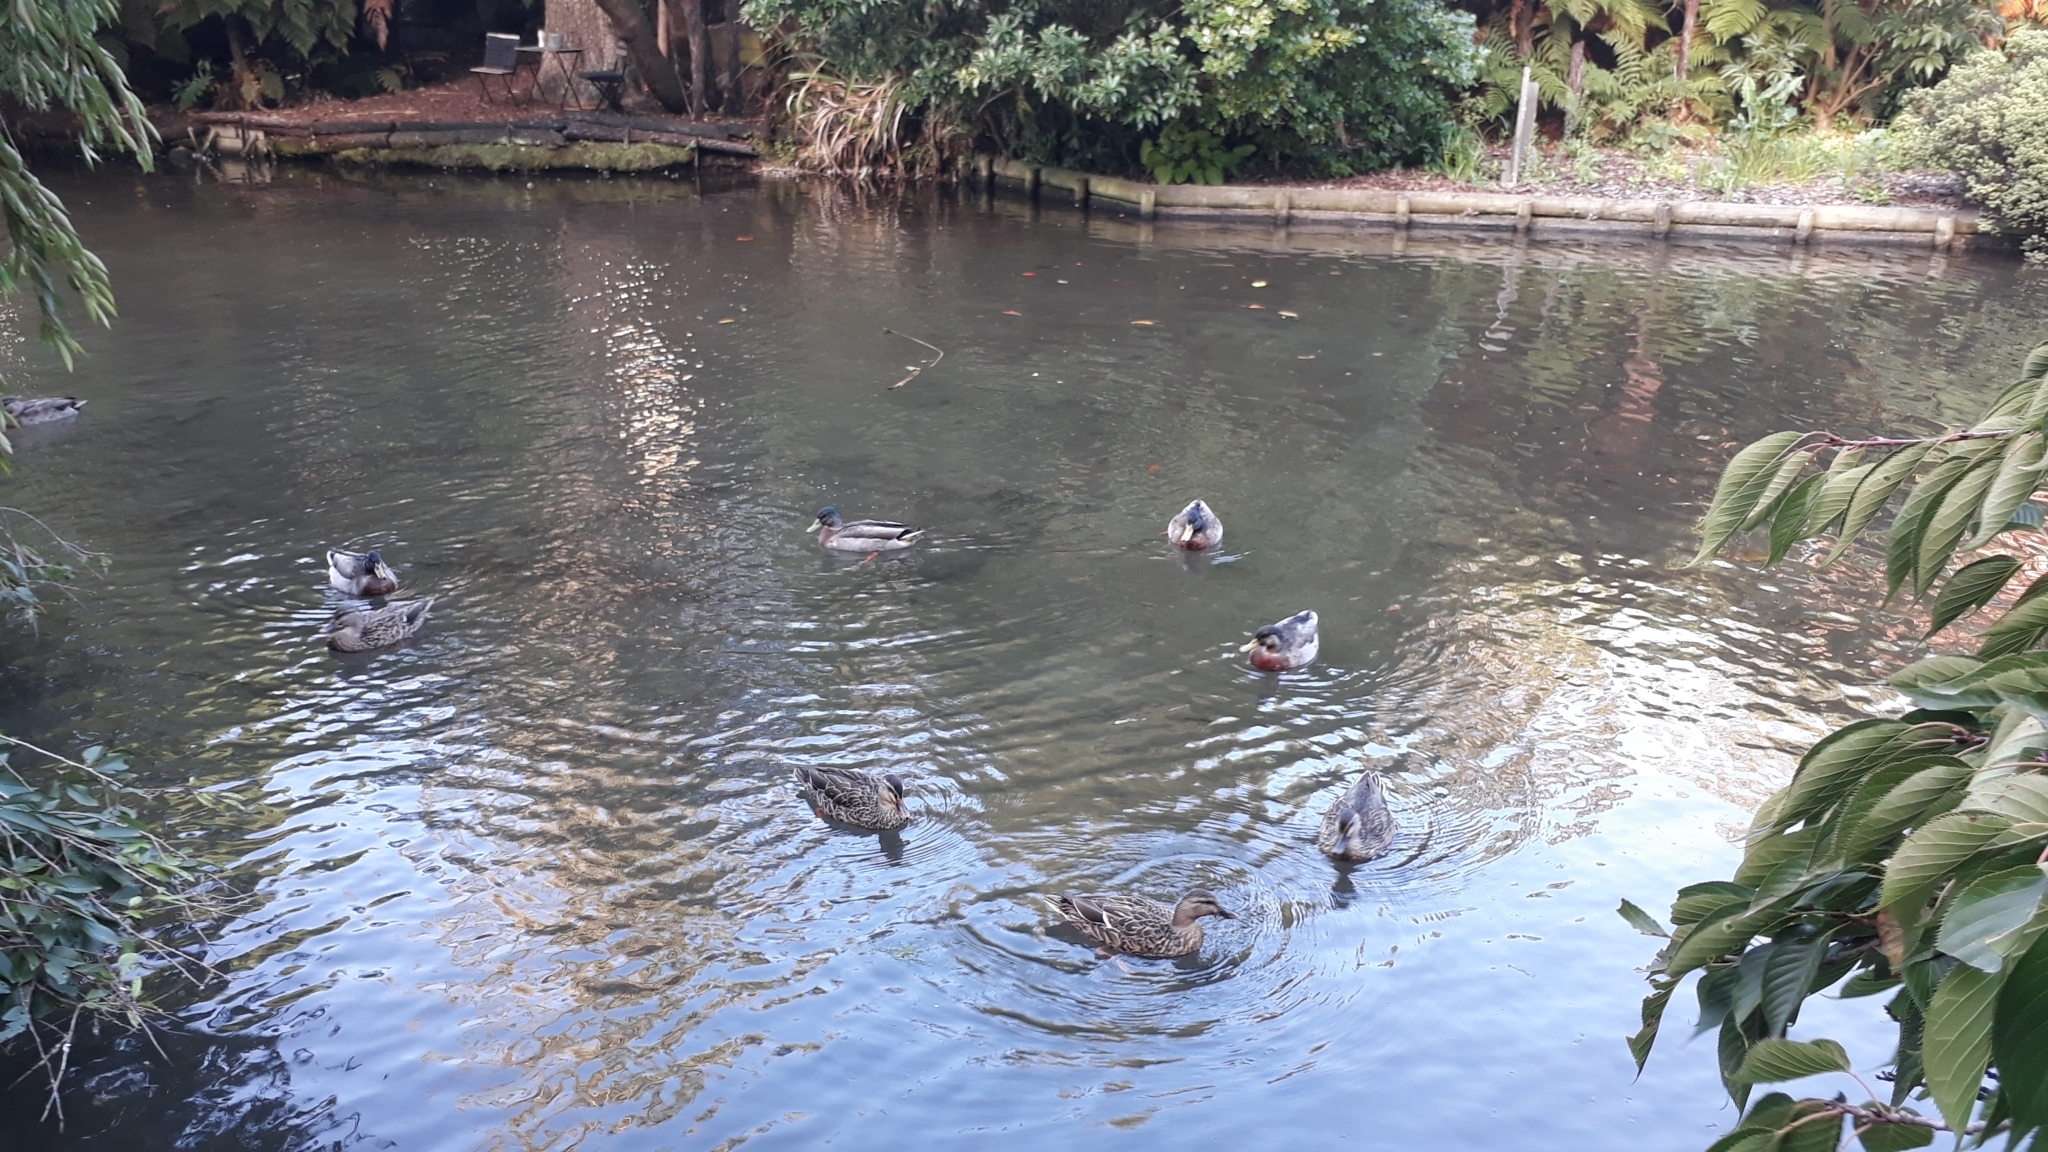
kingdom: Animalia
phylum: Chordata
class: Aves
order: Anseriformes
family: Anatidae
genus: Anas
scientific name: Anas platyrhynchos
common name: Mallard
